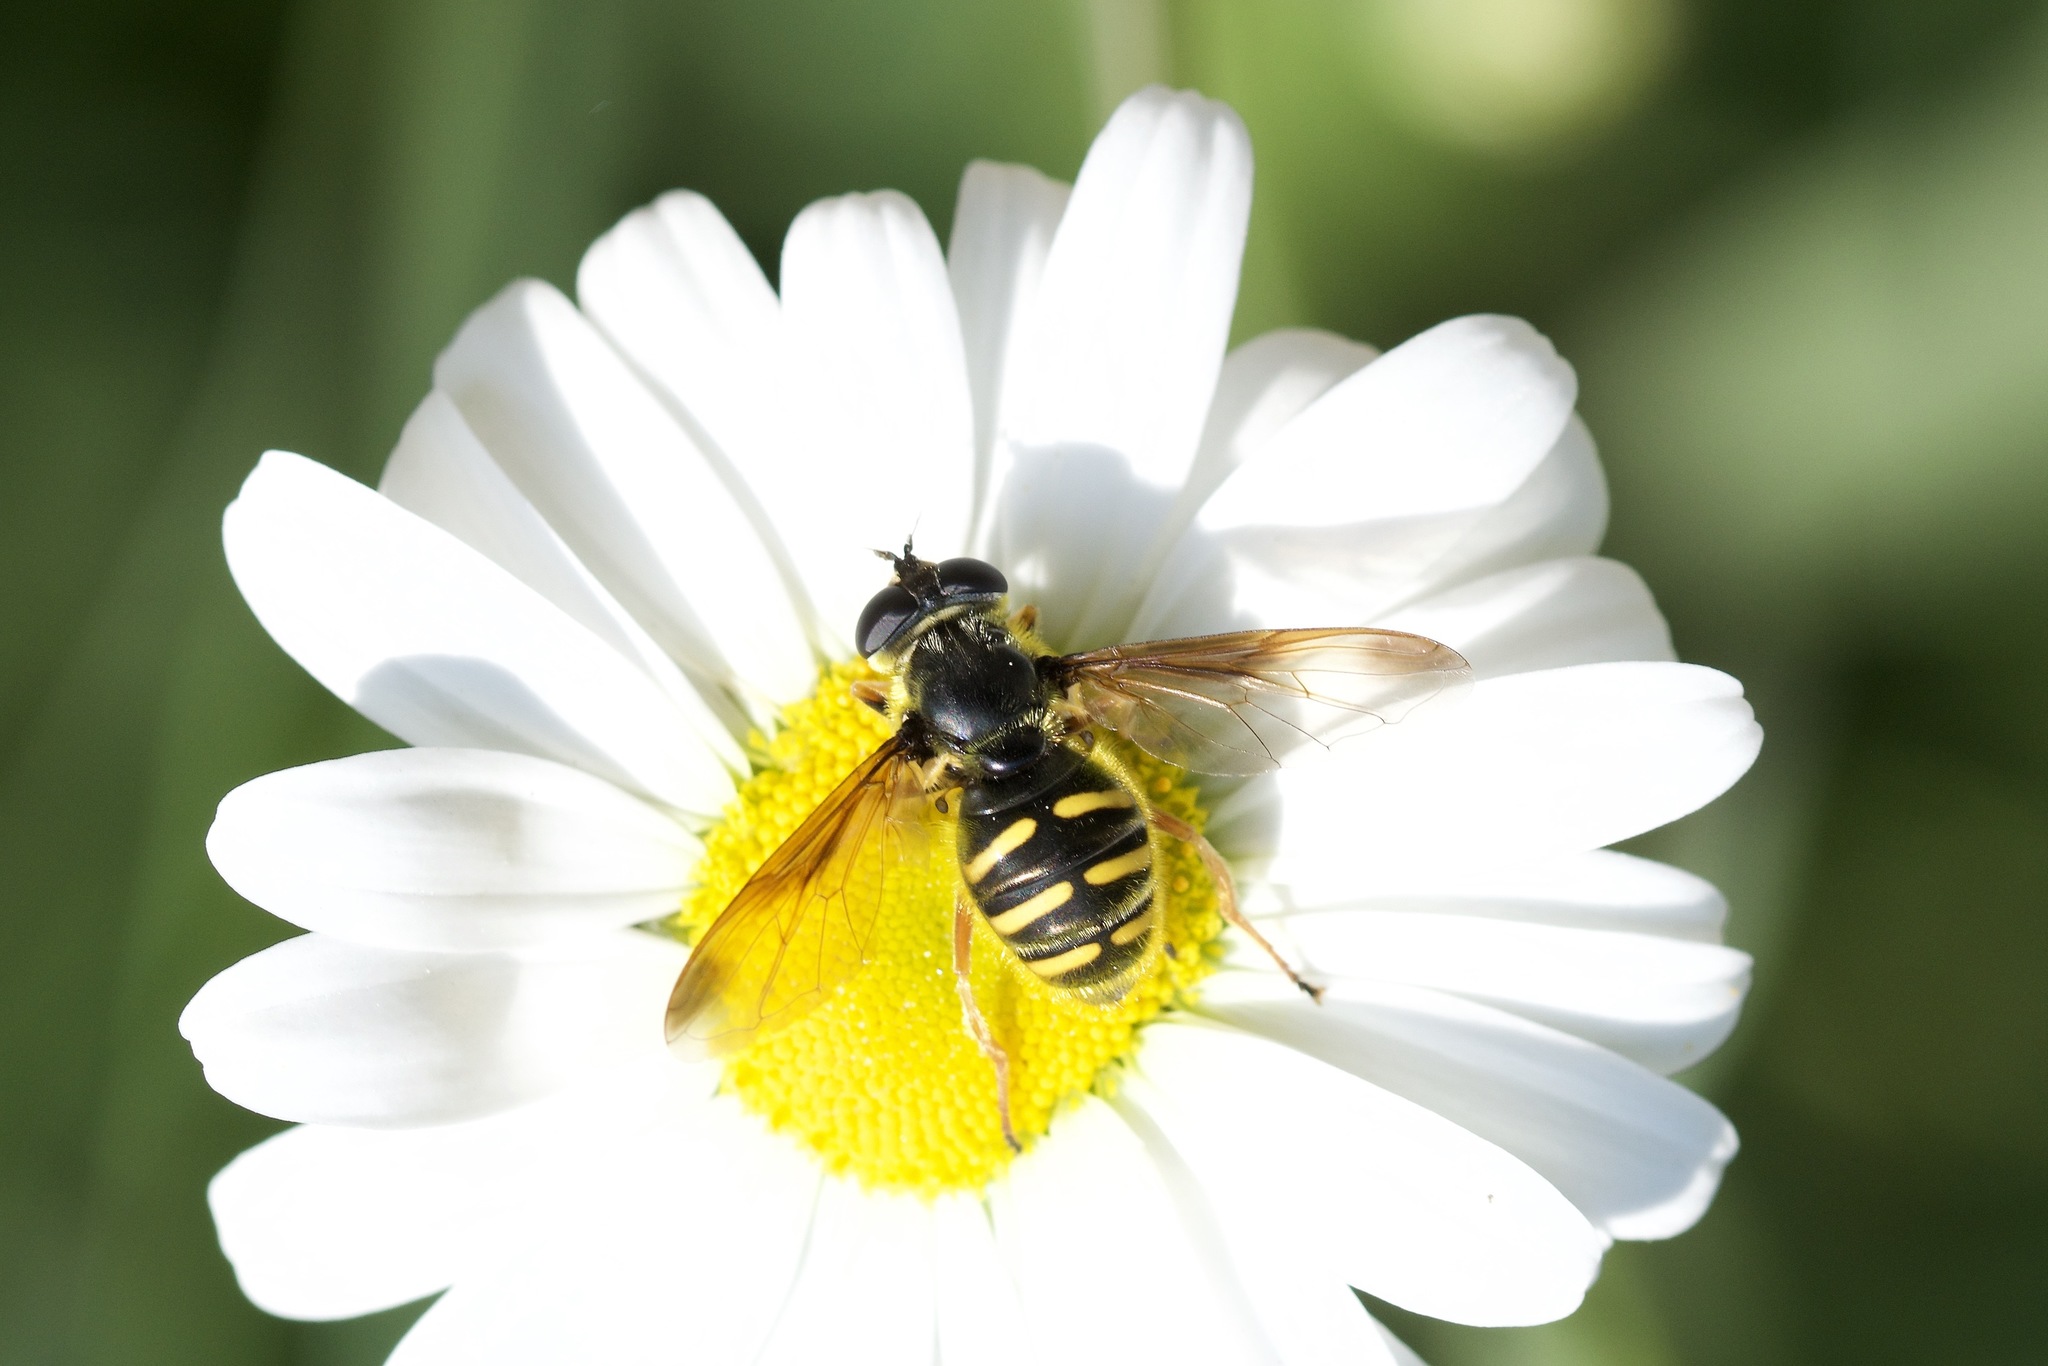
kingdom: Animalia
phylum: Arthropoda
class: Insecta
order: Diptera
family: Syrphidae
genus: Sericomyia
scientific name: Sericomyia chrysotoxoides
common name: Oblique-banded pond fly
